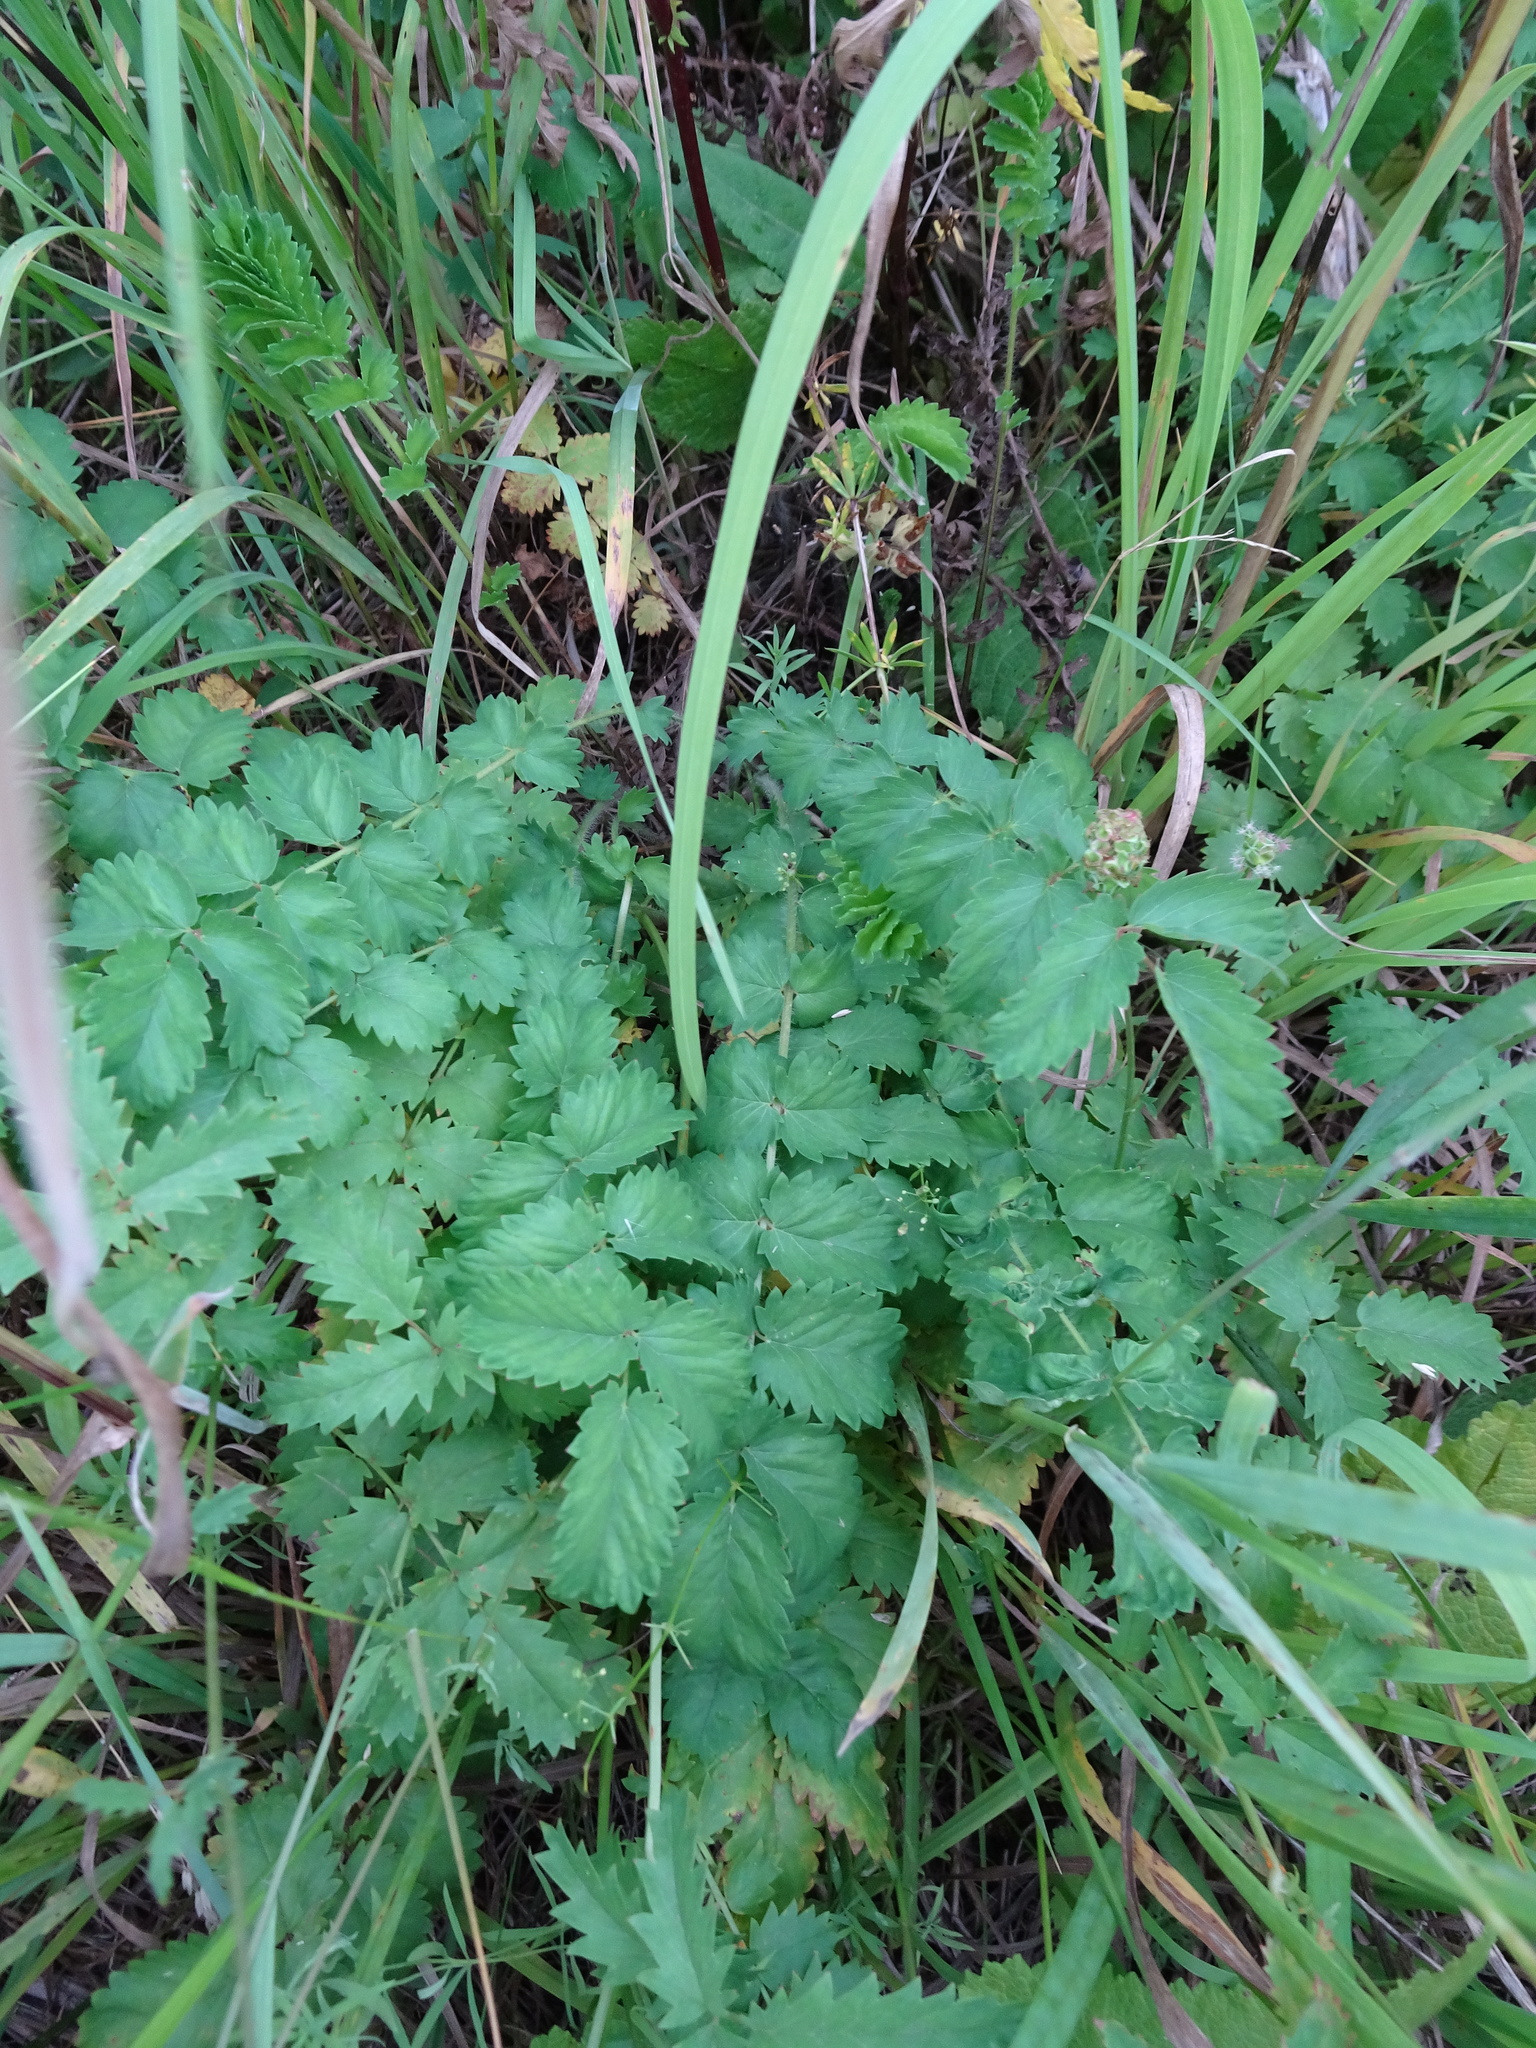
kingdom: Plantae
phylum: Tracheophyta
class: Magnoliopsida
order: Rosales
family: Rosaceae
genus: Poterium
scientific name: Poterium sanguisorba
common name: Salad burnet
